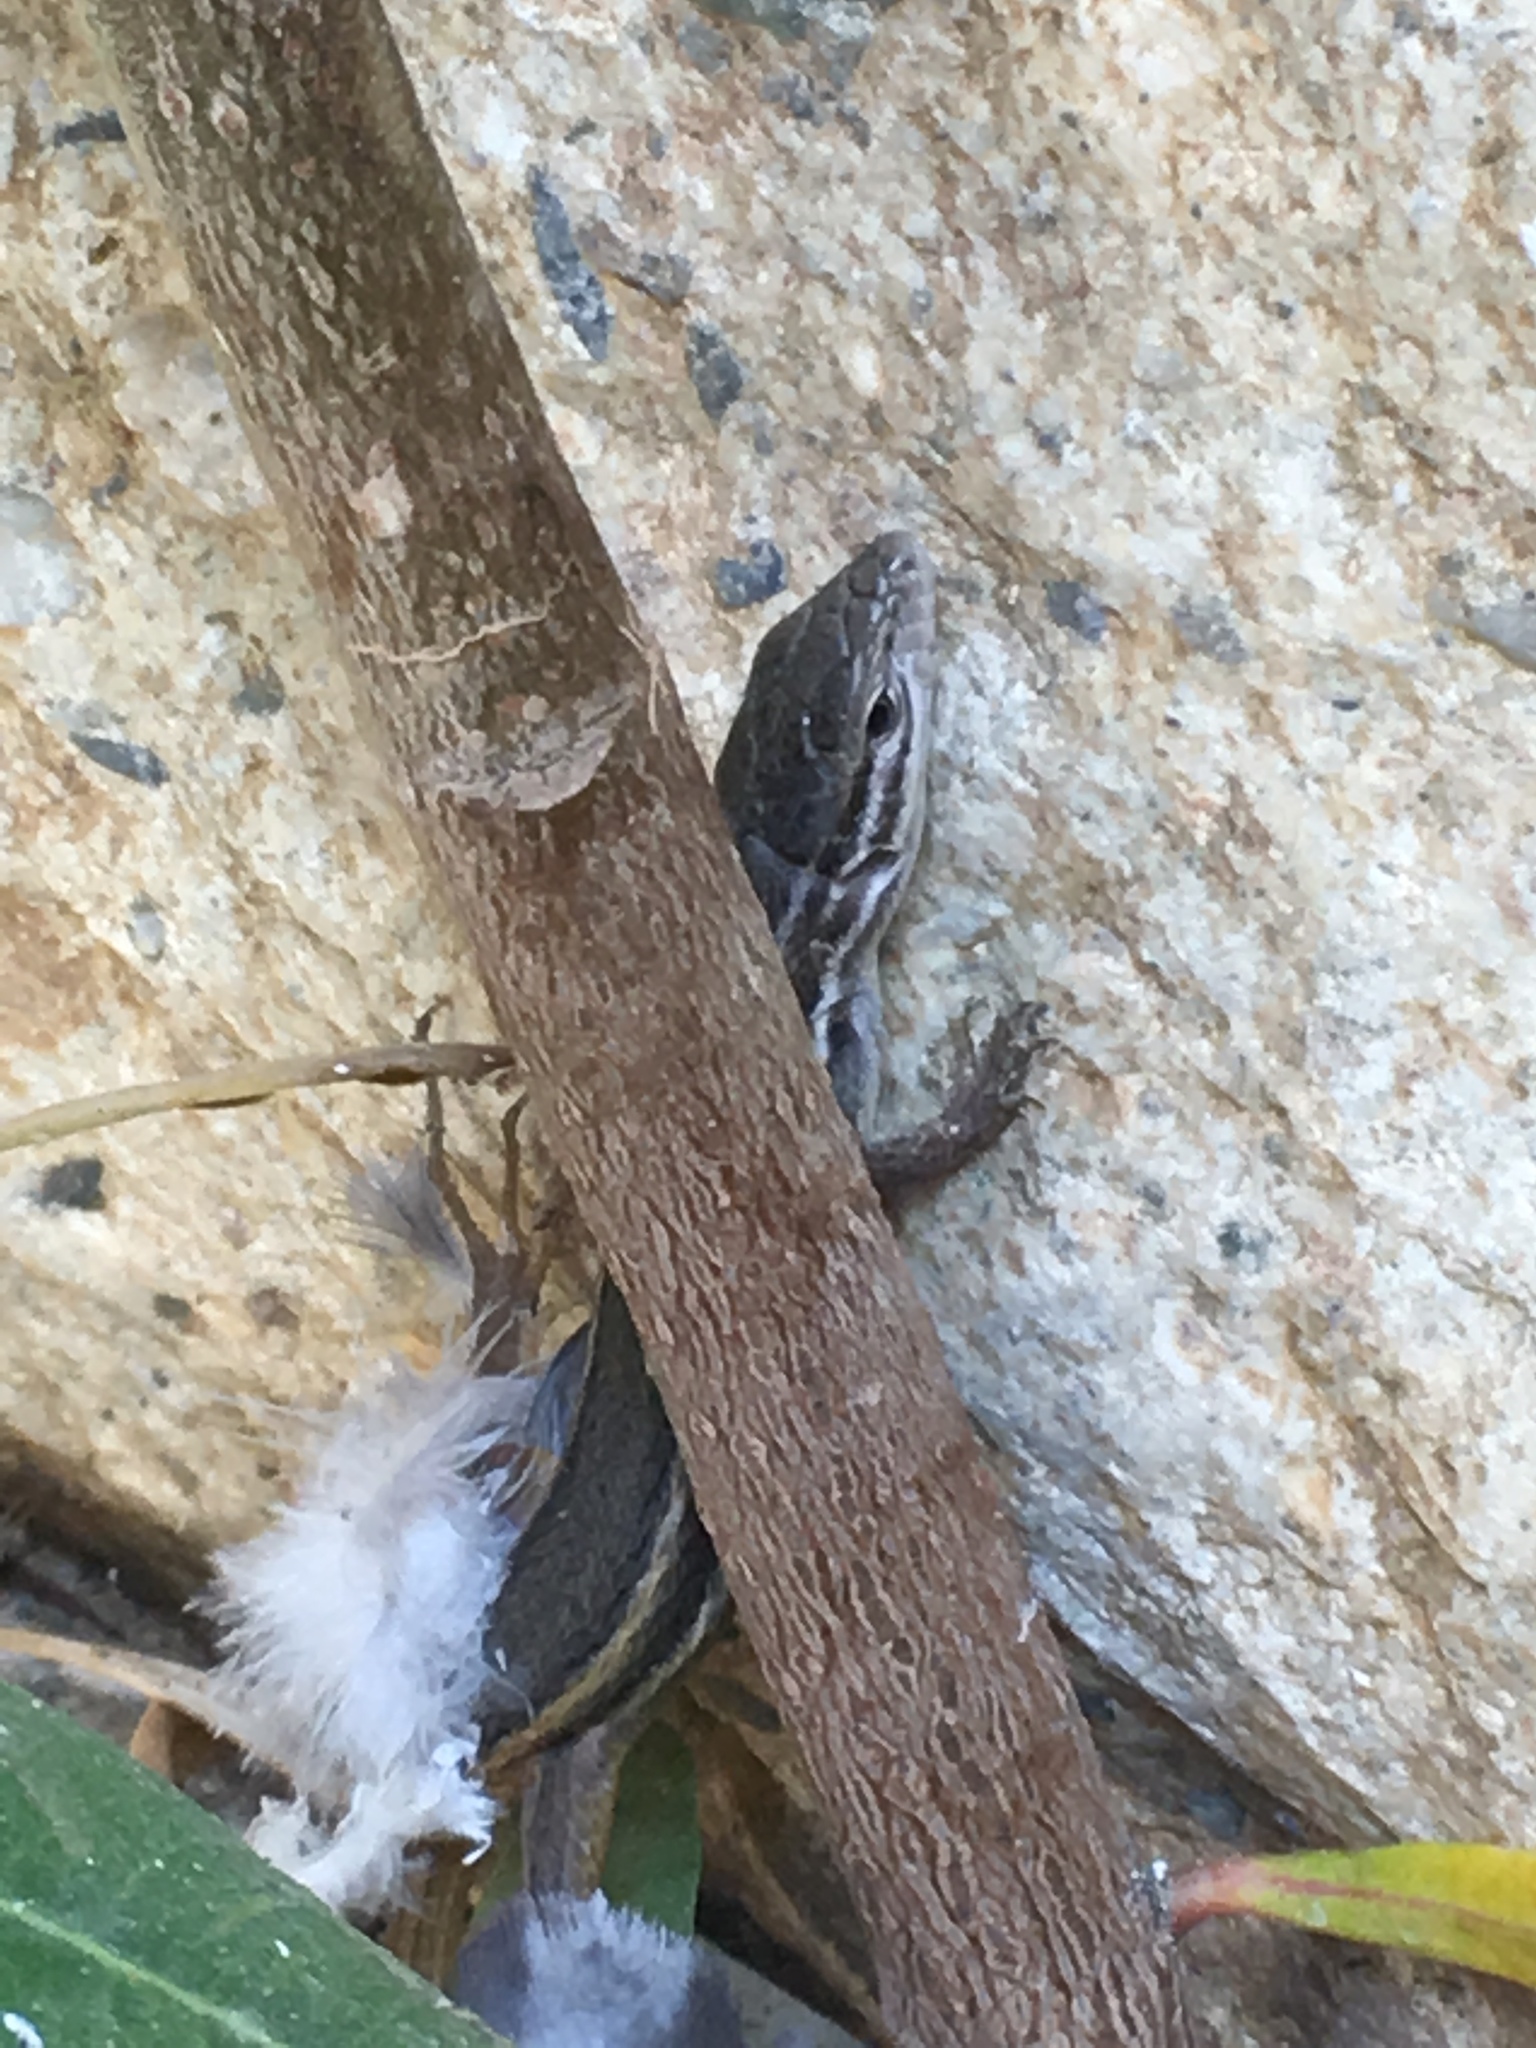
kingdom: Animalia
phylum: Chordata
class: Squamata
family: Lacertidae
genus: Psammodromus
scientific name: Psammodromus algirus
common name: Algerian psammodromus
